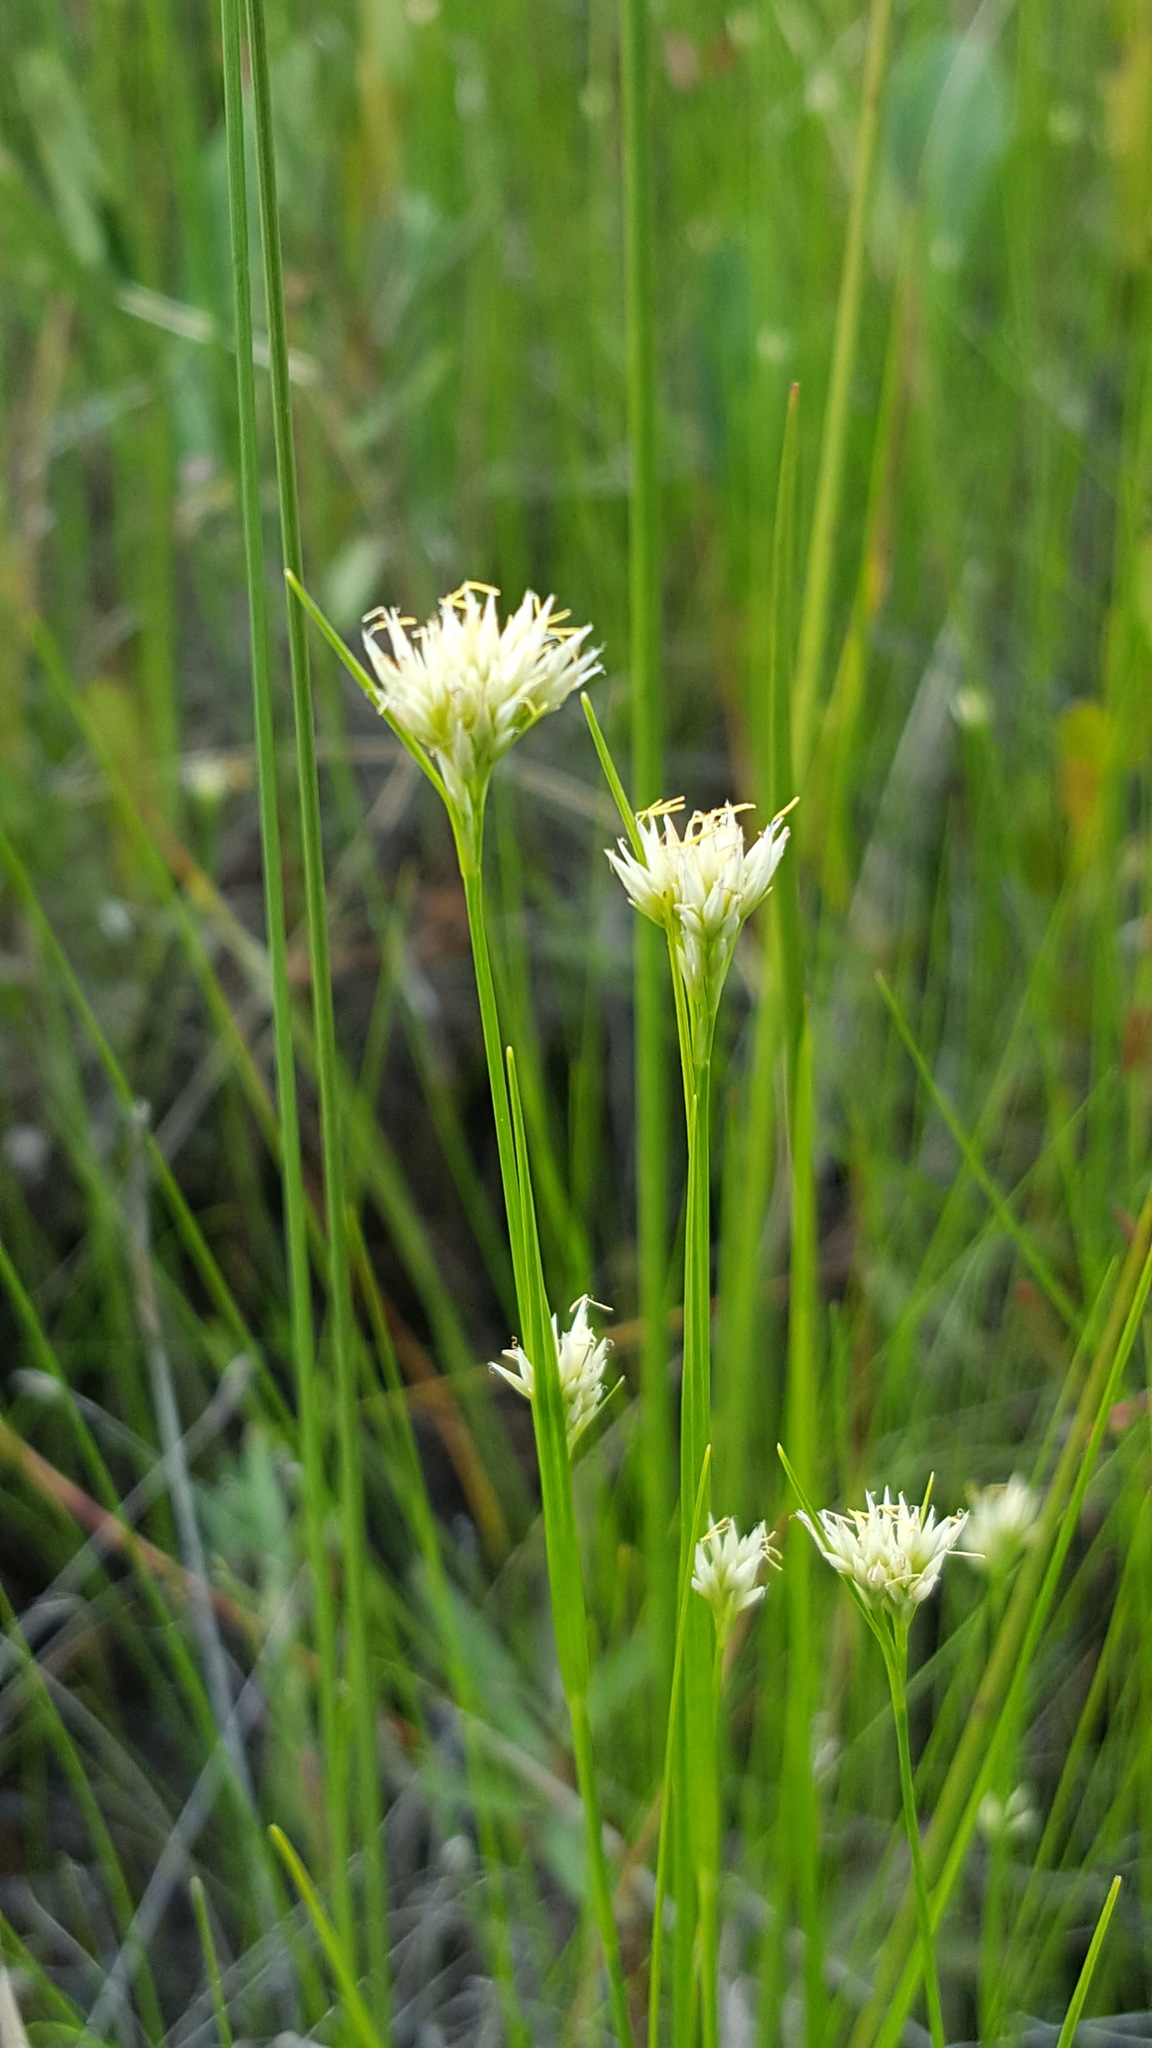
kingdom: Plantae
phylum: Tracheophyta
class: Liliopsida
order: Poales
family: Cyperaceae
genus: Rhynchospora
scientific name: Rhynchospora alba
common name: White beak-sedge
